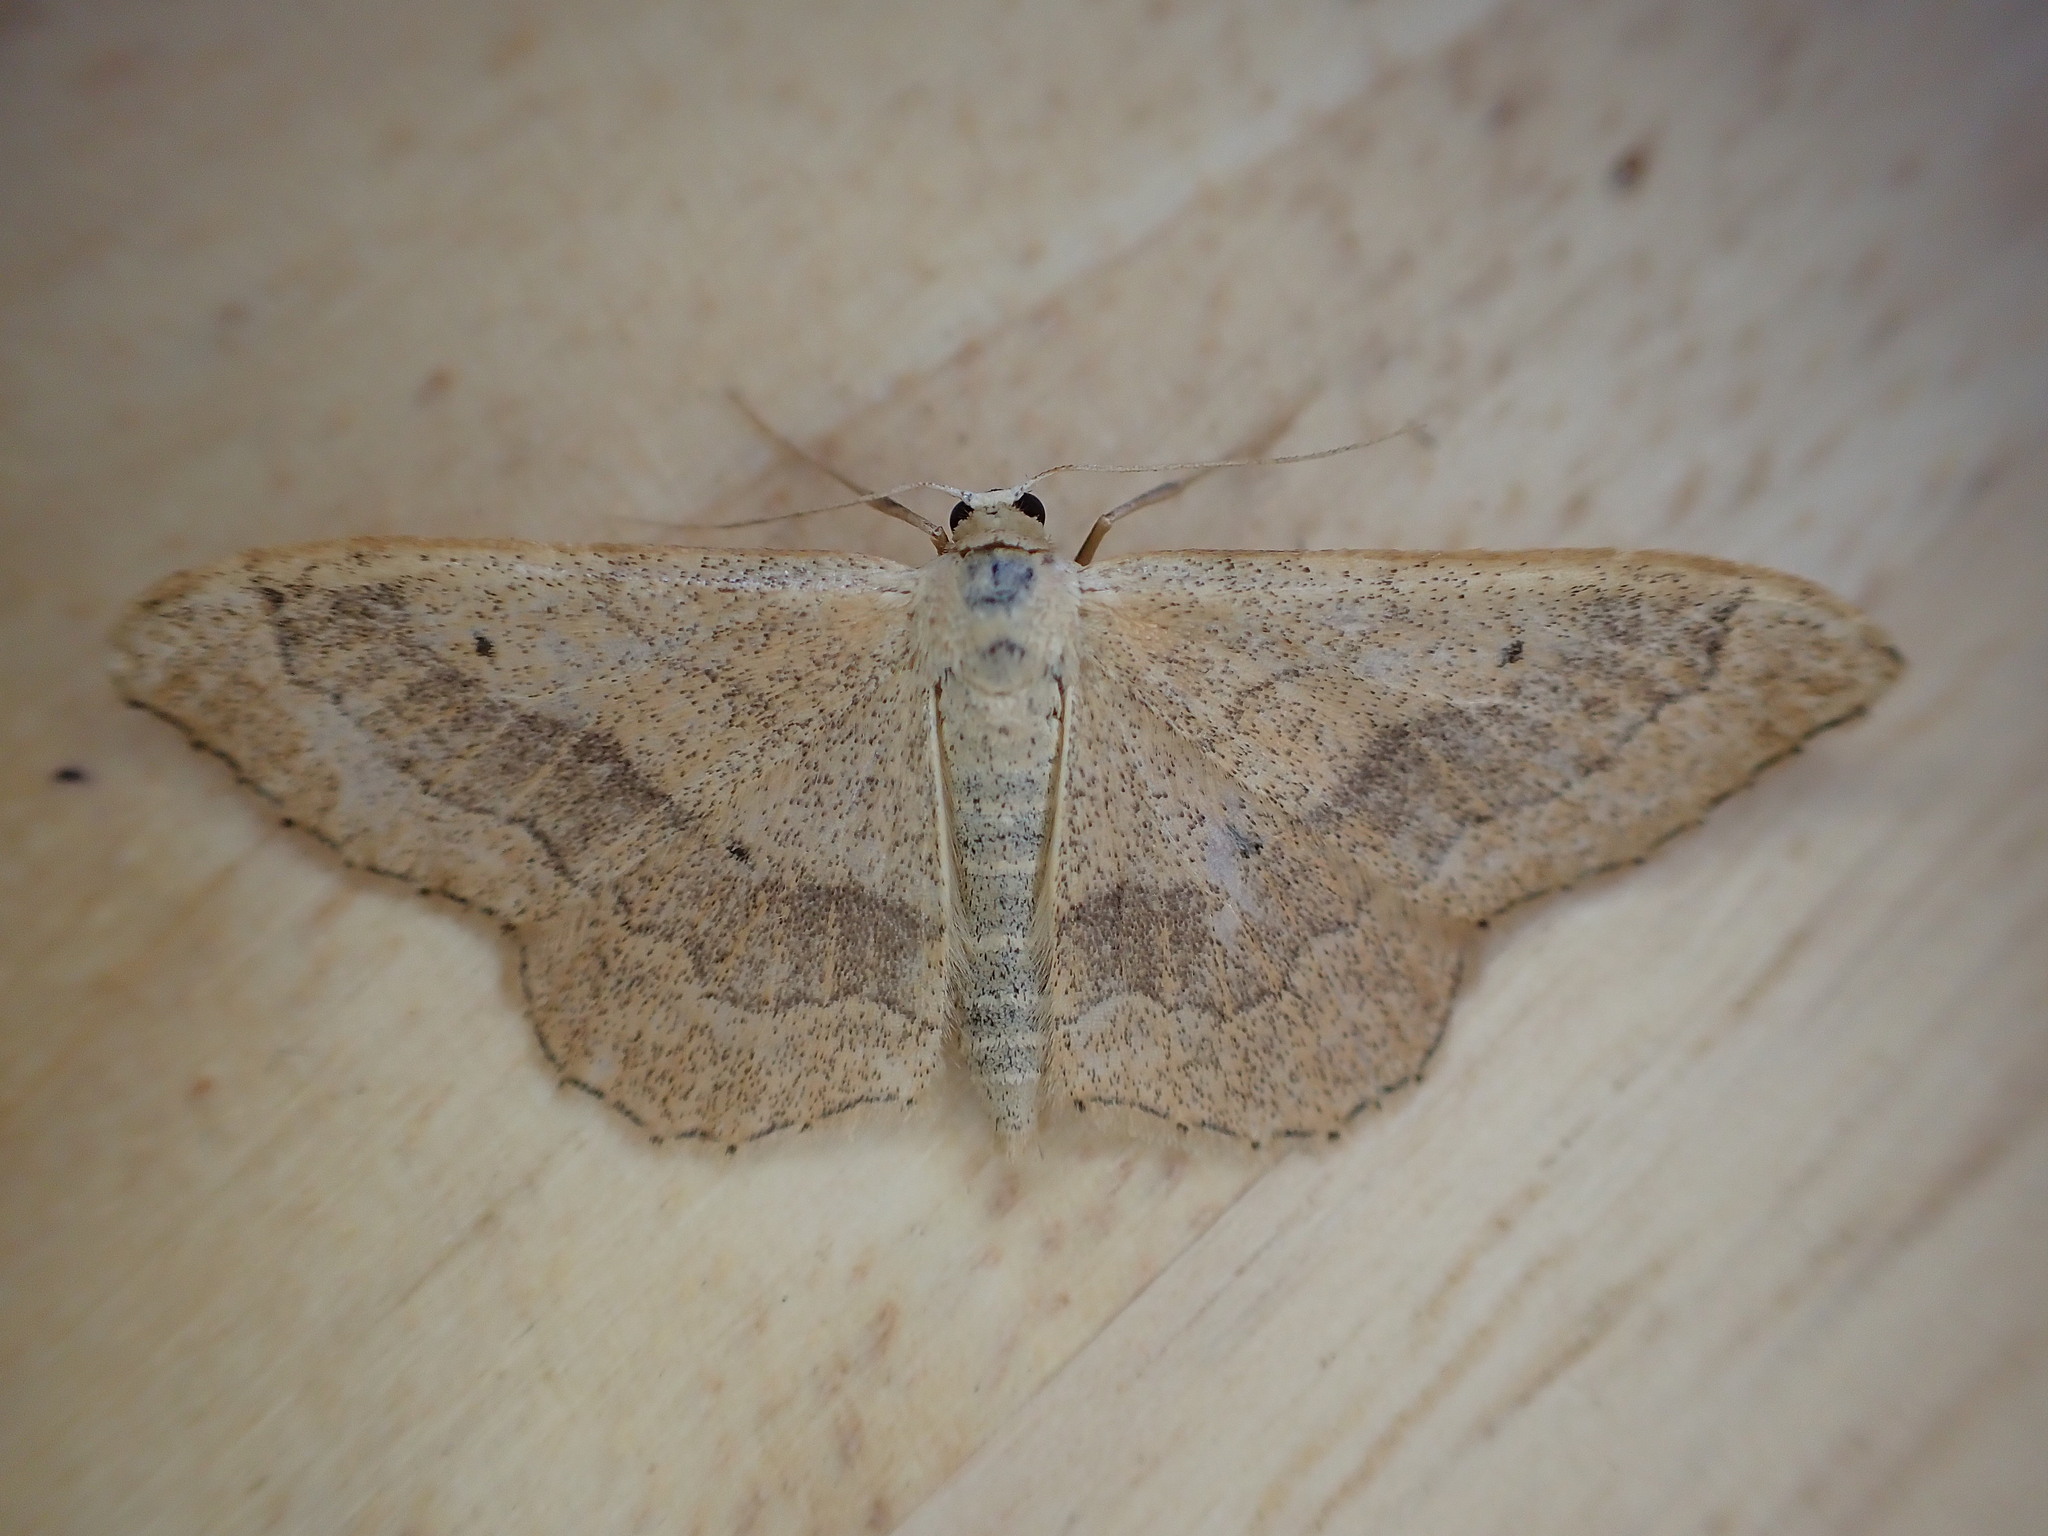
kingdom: Animalia
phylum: Arthropoda
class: Insecta
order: Lepidoptera
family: Geometridae
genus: Idaea
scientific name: Idaea aversata
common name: Riband wave
